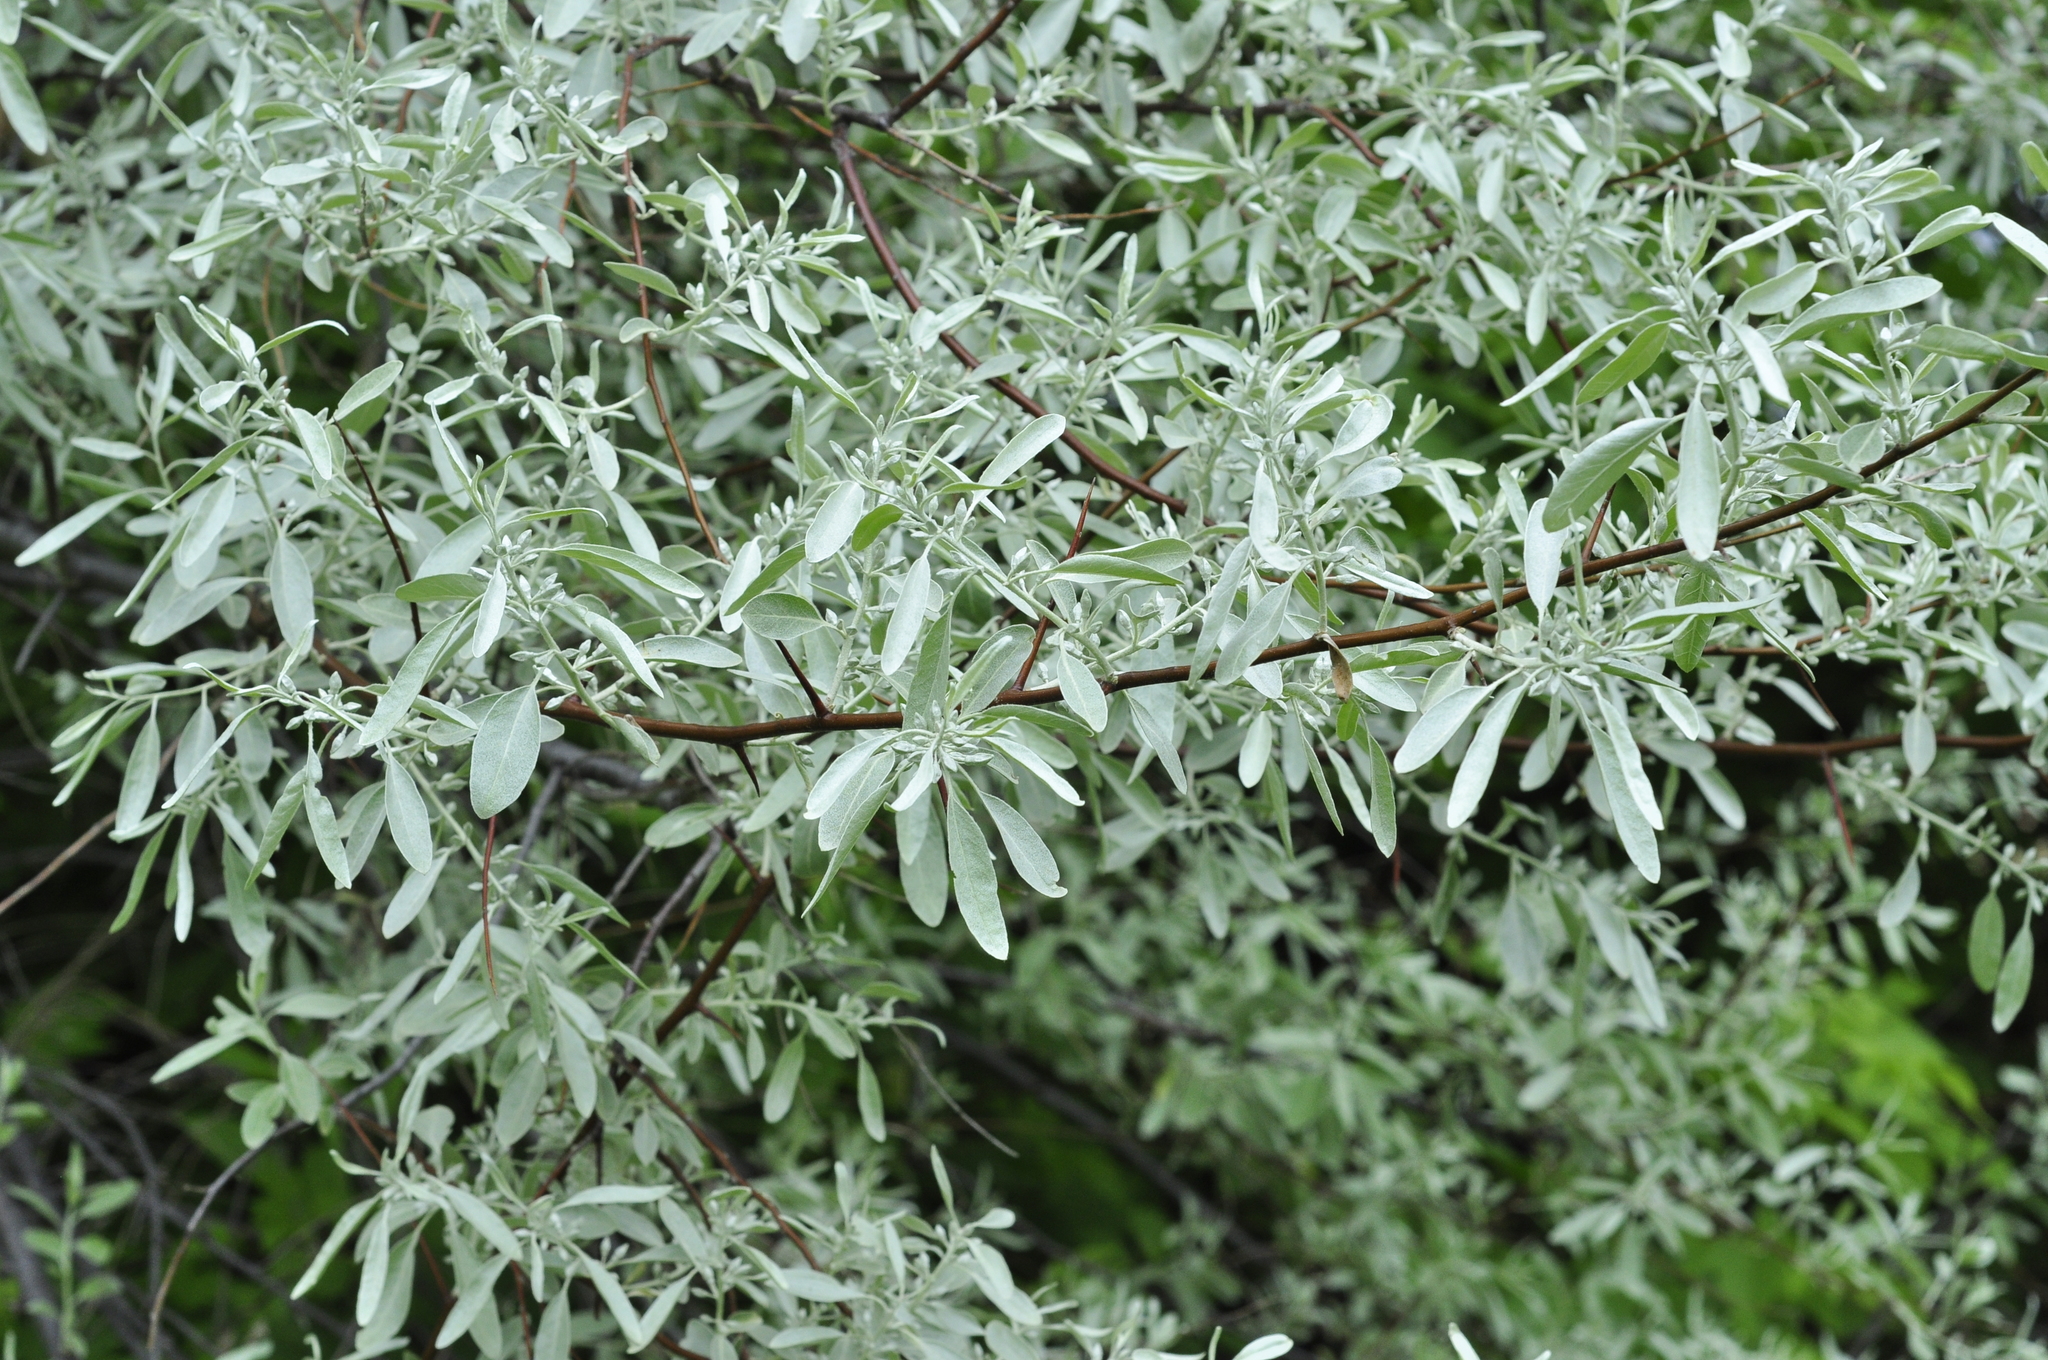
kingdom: Plantae
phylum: Tracheophyta
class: Magnoliopsida
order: Rosales
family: Elaeagnaceae
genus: Elaeagnus
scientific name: Elaeagnus angustifolia
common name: Russian olive
